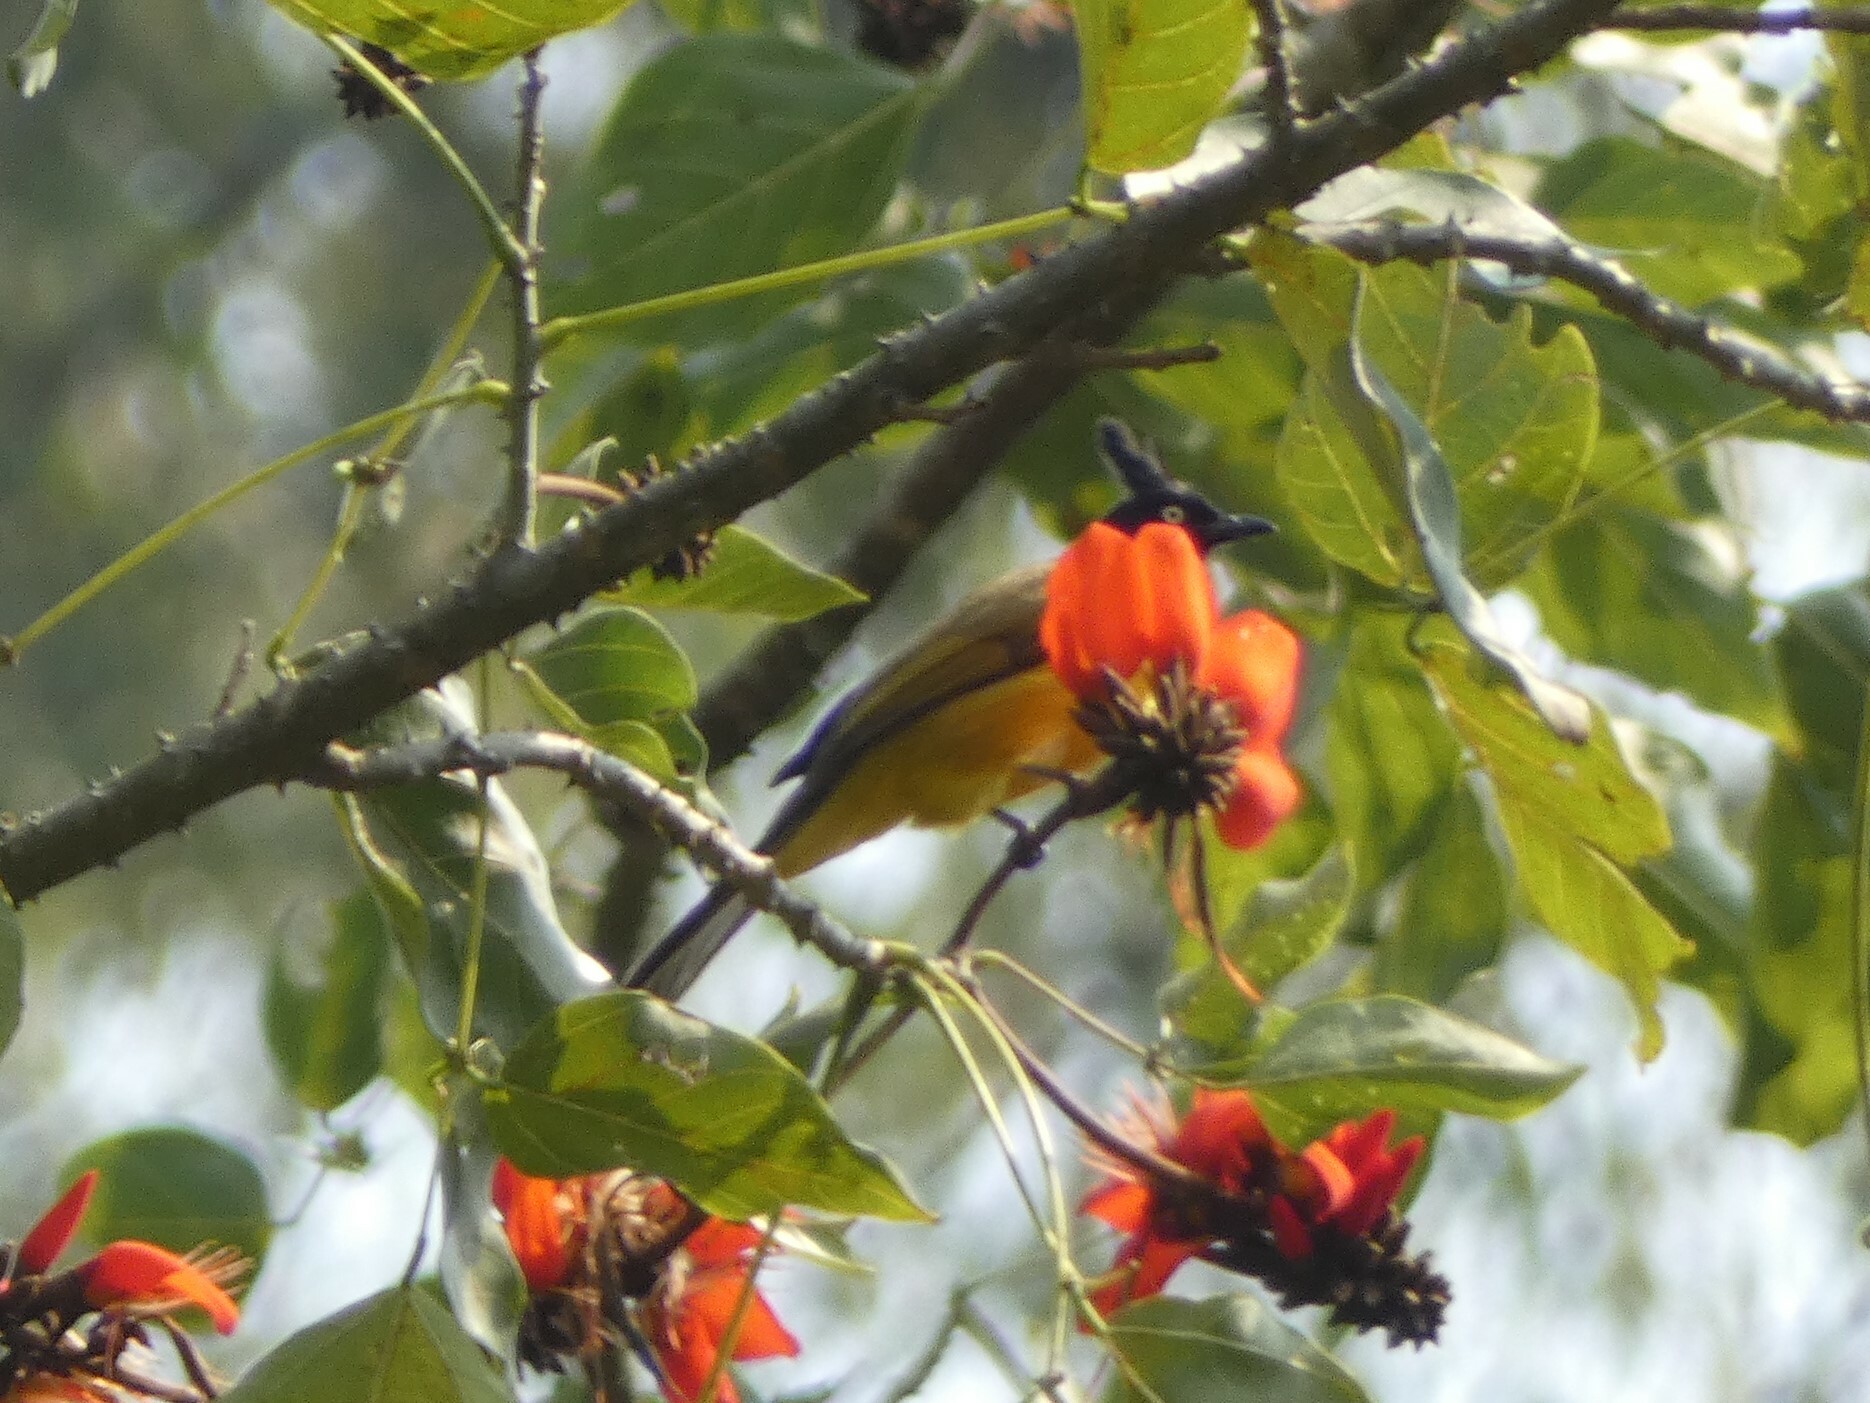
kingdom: Animalia
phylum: Chordata
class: Aves
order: Passeriformes
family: Pycnonotidae
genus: Pycnonotus
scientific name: Pycnonotus flaviventris
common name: Black-crested bulbul
